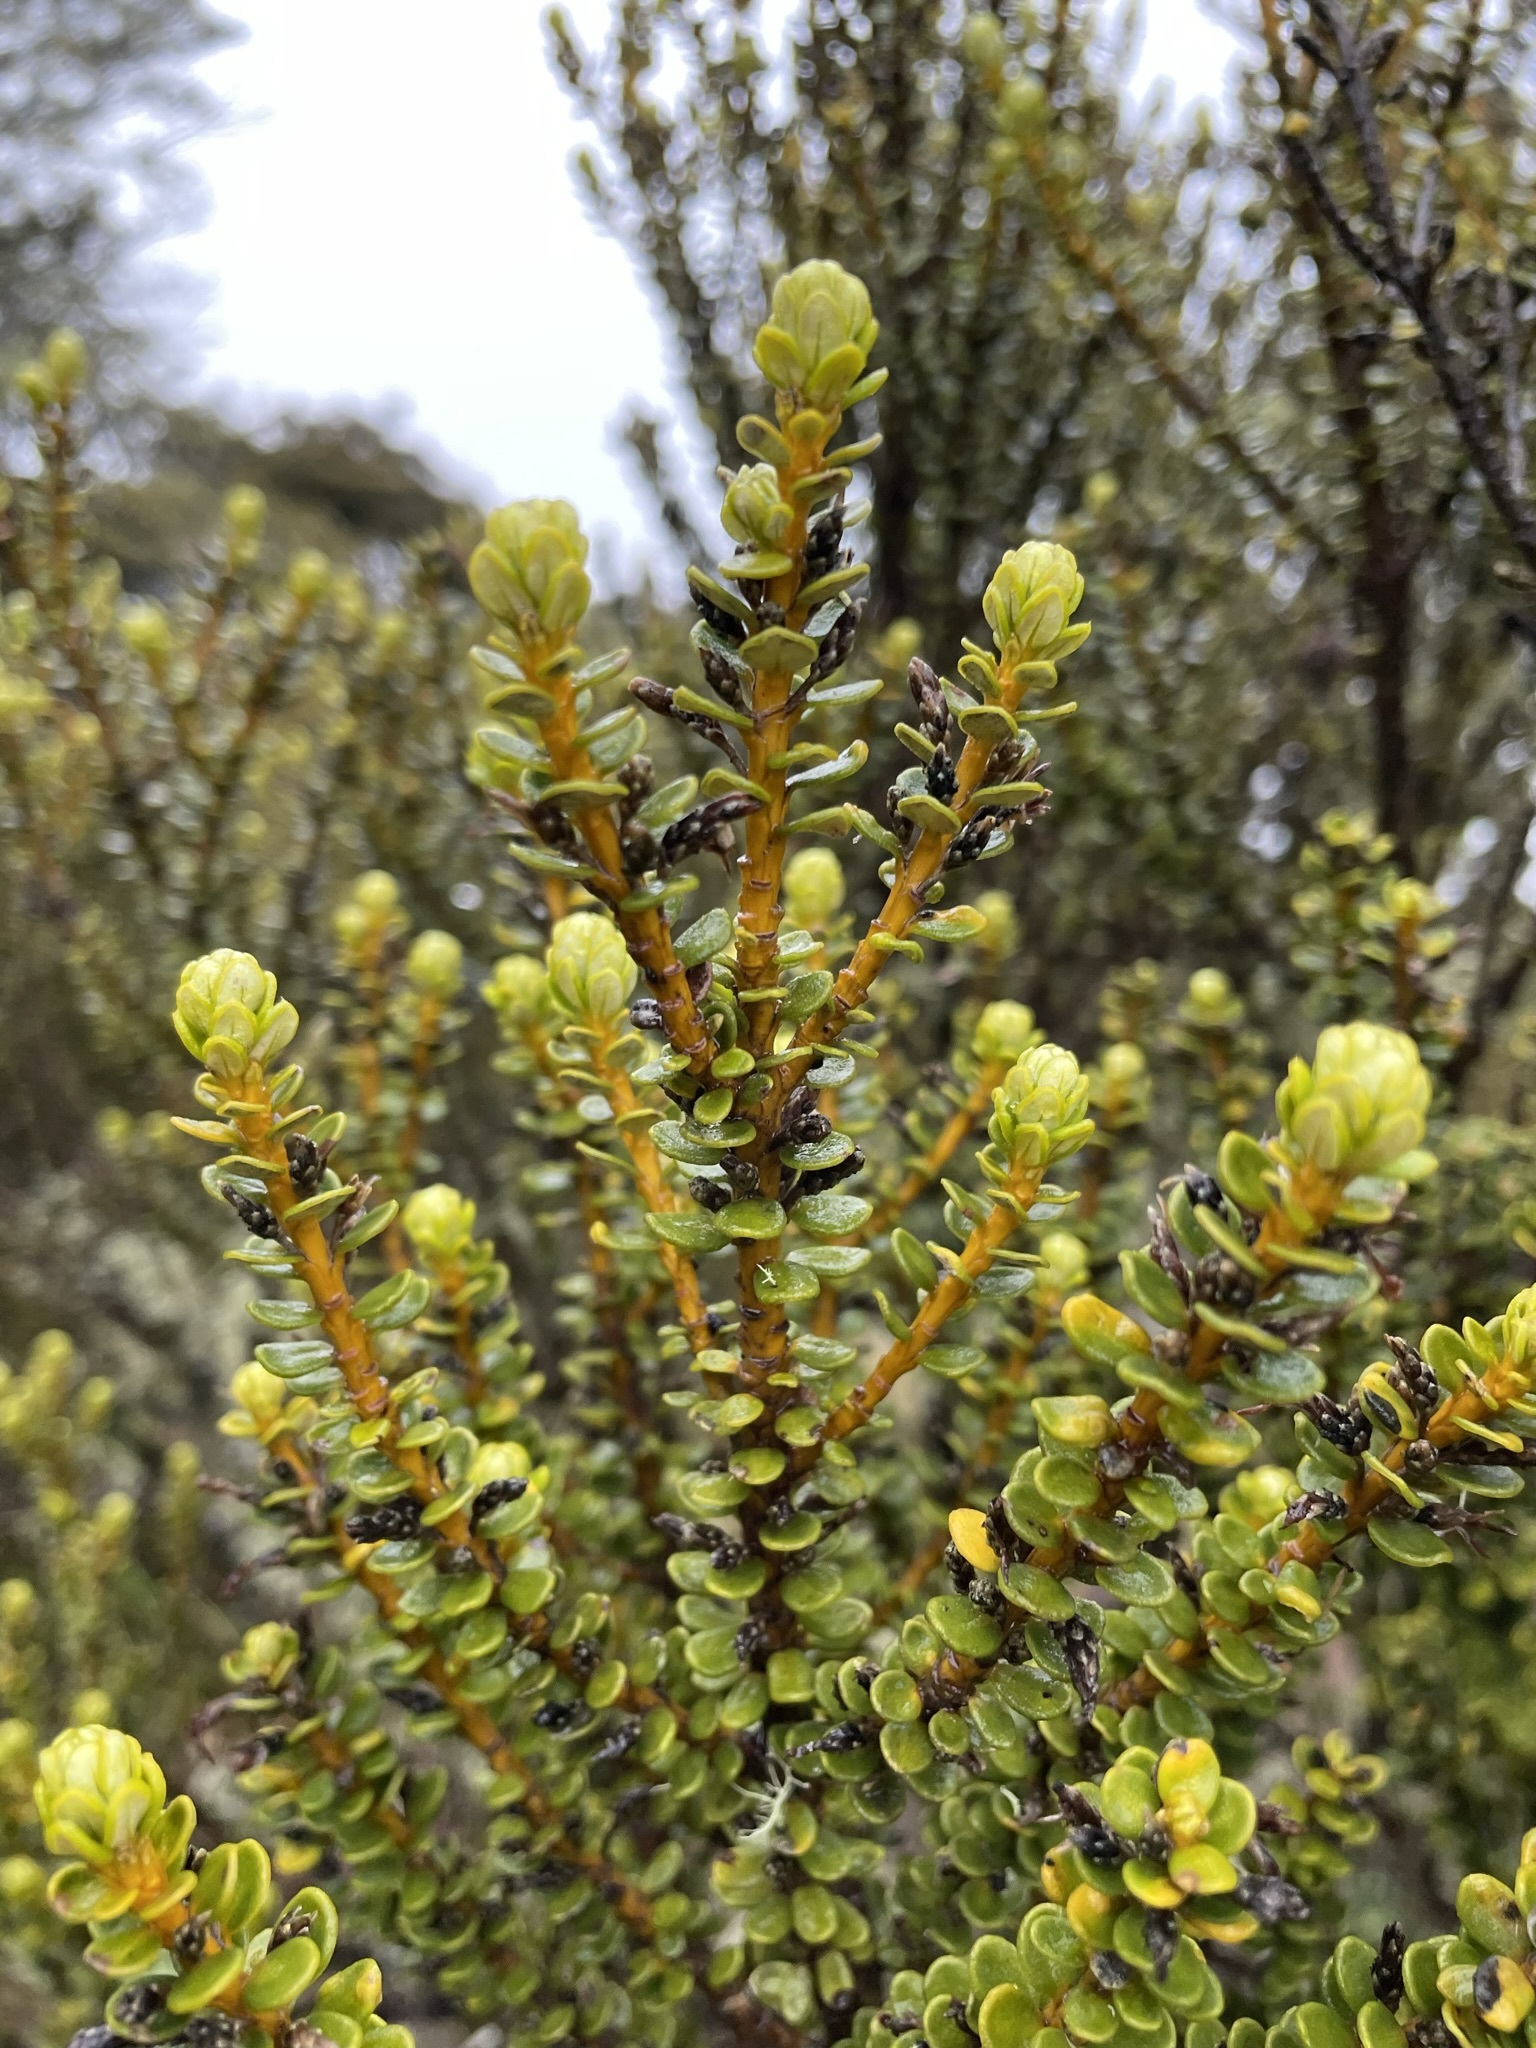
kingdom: Plantae
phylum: Tracheophyta
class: Magnoliopsida
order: Asterales
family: Asteraceae
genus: Olearia
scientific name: Olearia nummularifolia
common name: Sticky daisybush
